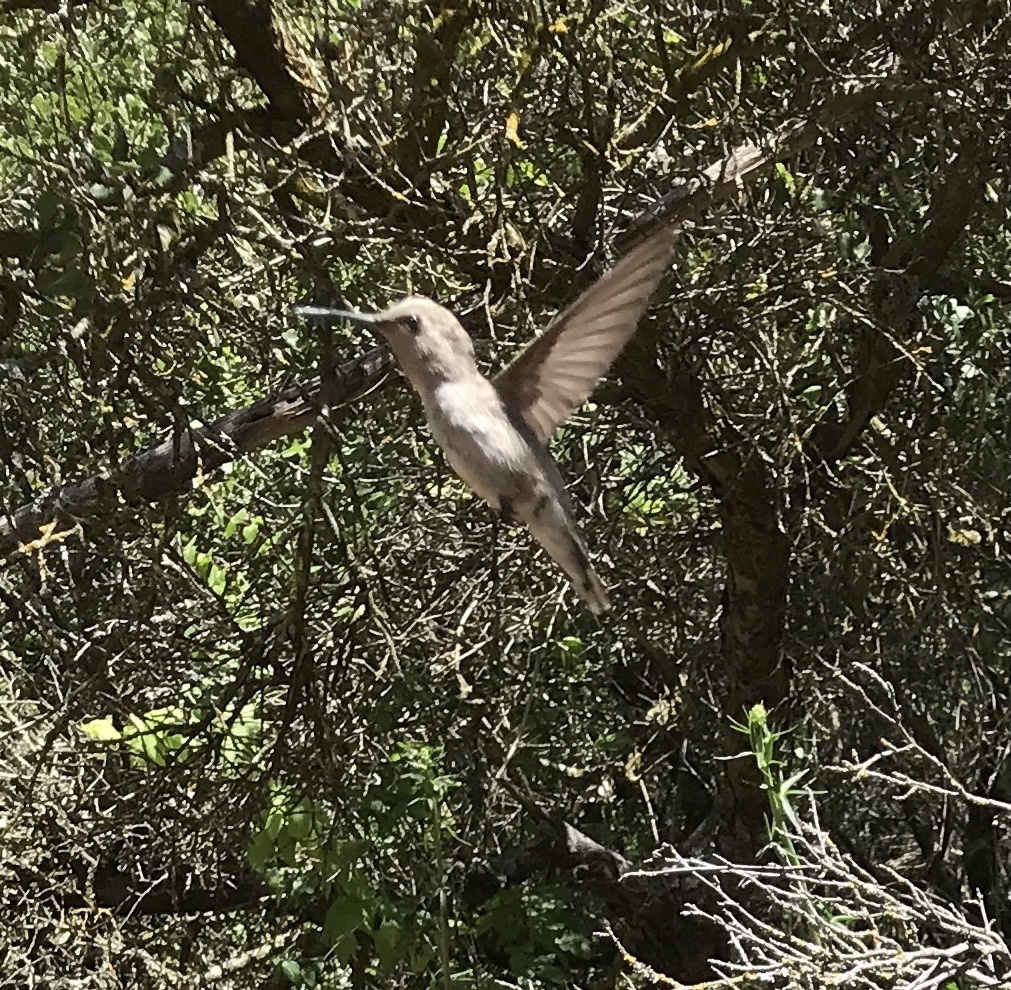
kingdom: Animalia
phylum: Chordata
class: Aves
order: Apodiformes
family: Trochilidae
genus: Calypte
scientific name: Calypte costae
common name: Costa's hummingbird
